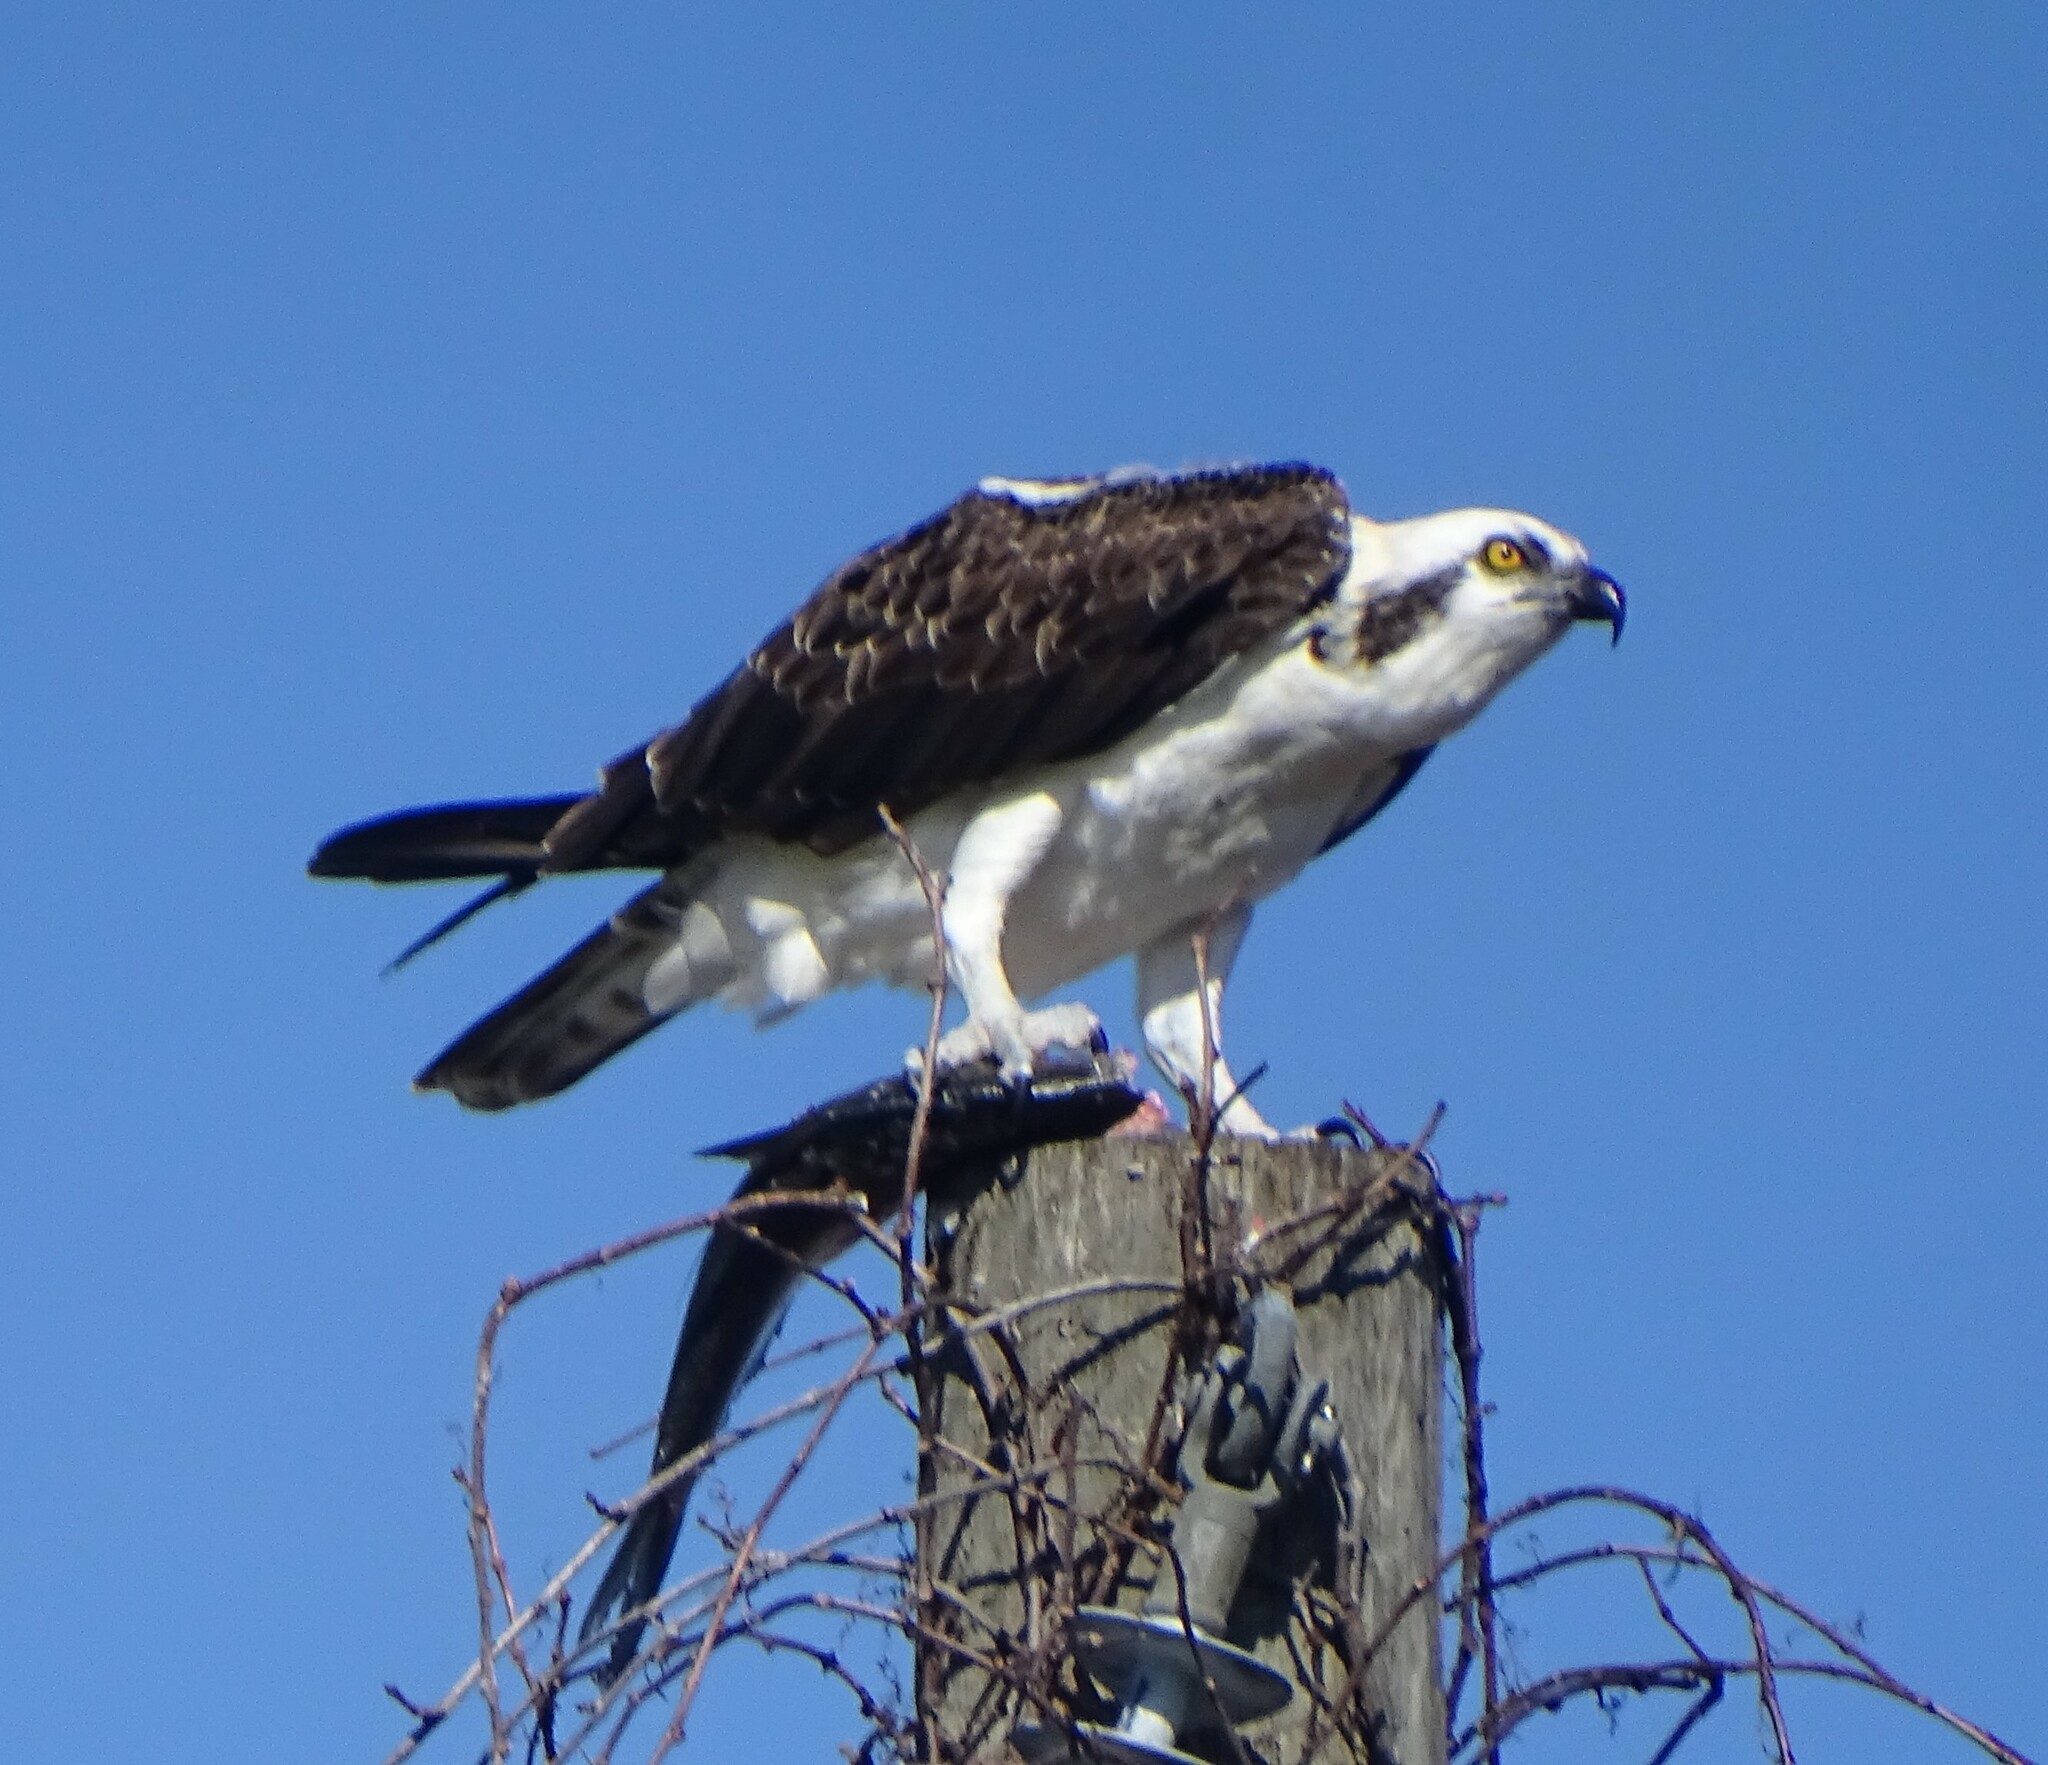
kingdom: Animalia
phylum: Chordata
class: Aves
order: Accipitriformes
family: Pandionidae
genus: Pandion
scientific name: Pandion haliaetus
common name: Osprey
